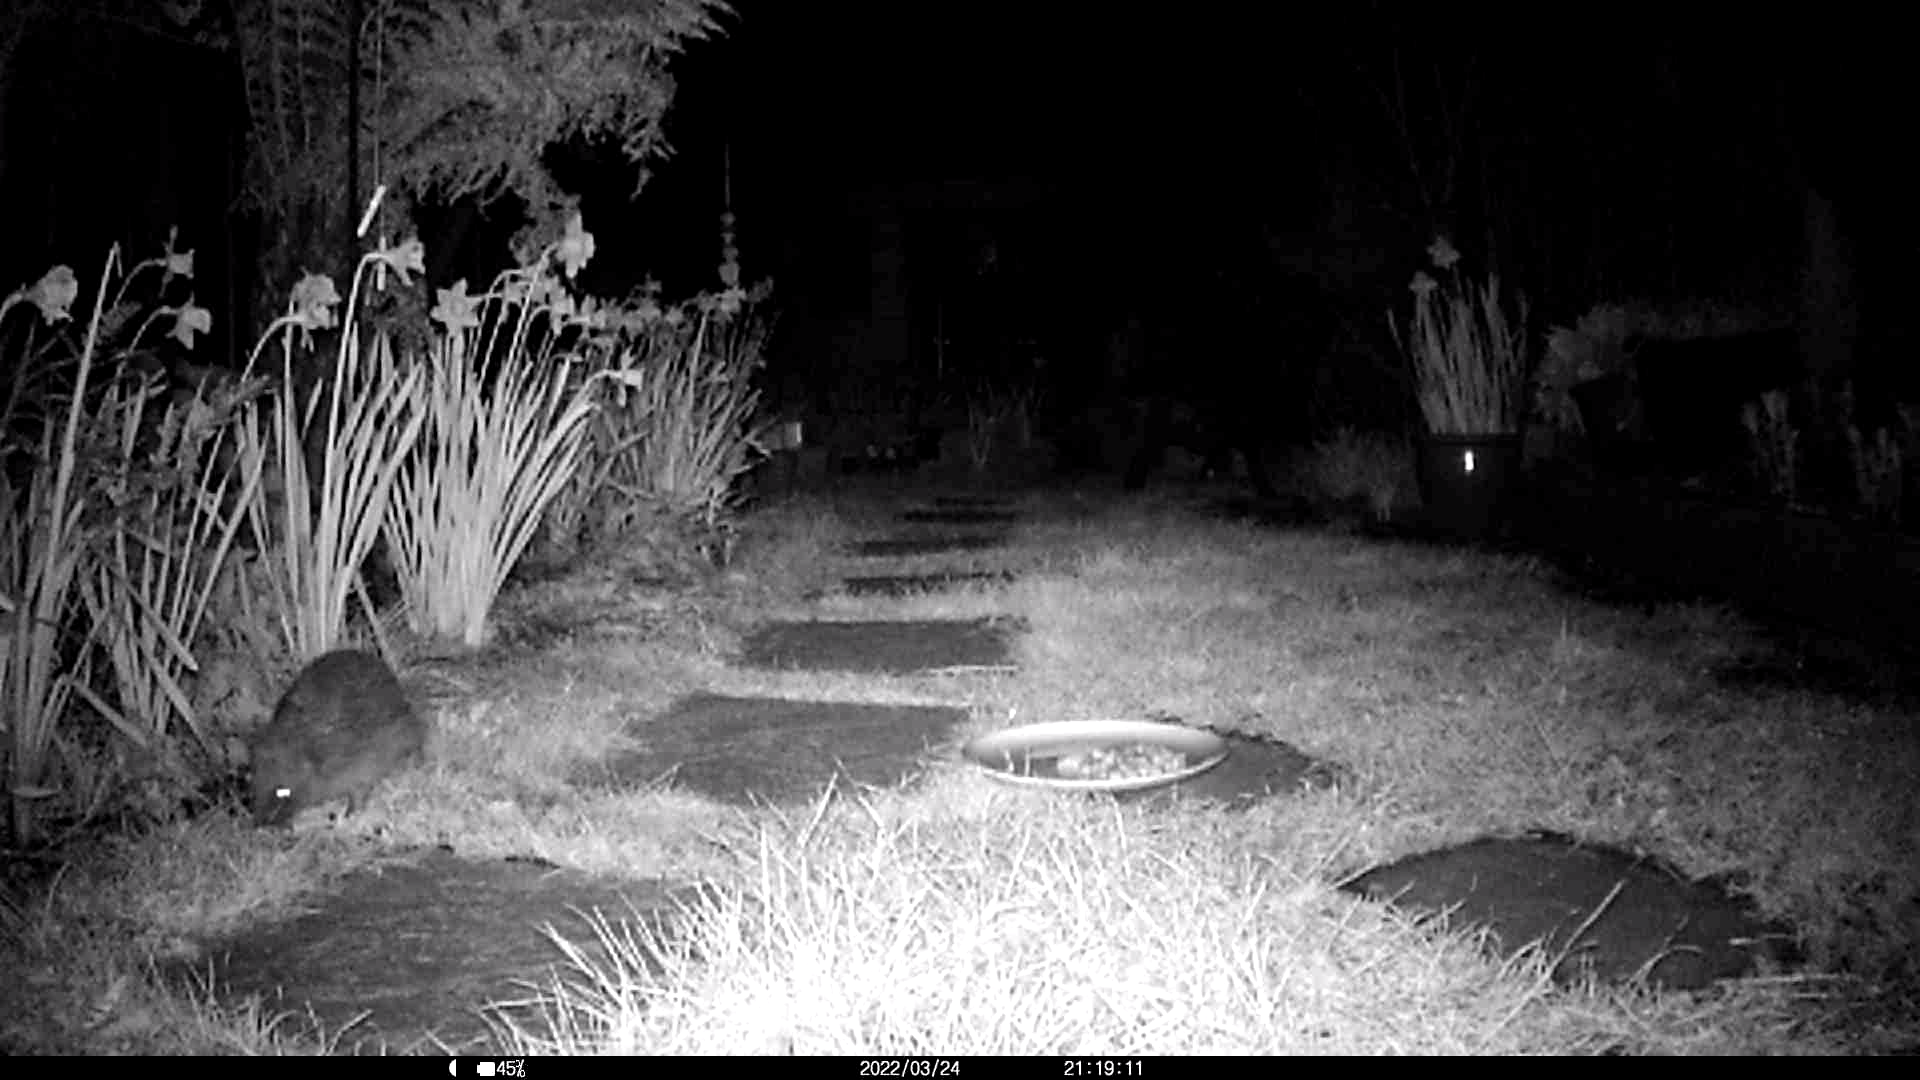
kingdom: Animalia
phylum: Chordata
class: Mammalia
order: Erinaceomorpha
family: Erinaceidae
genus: Erinaceus
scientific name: Erinaceus europaeus
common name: West european hedgehog
